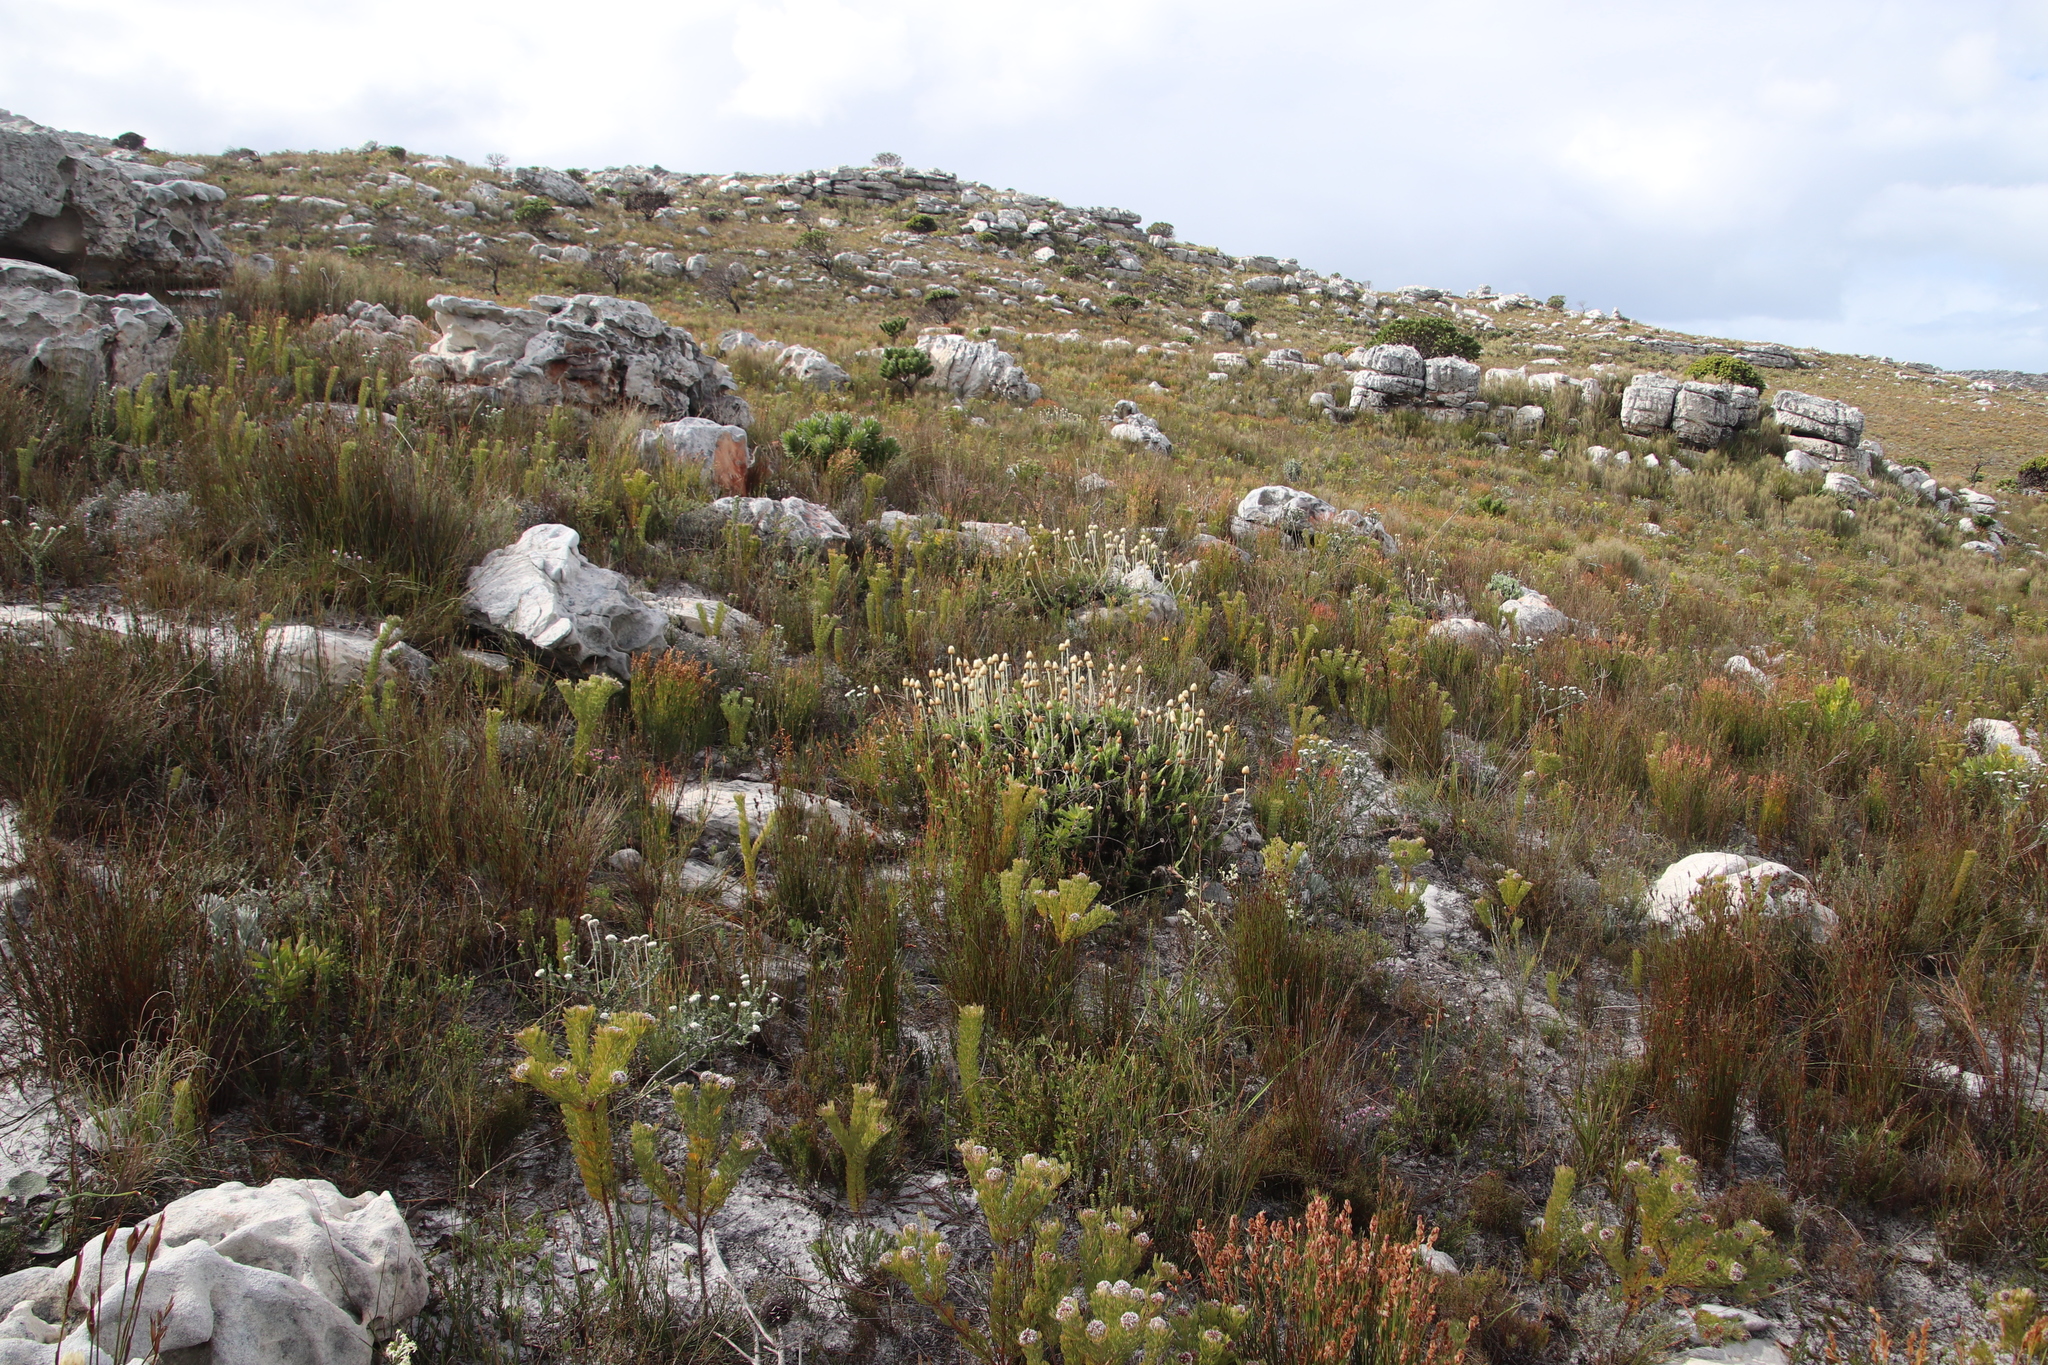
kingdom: Plantae
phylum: Tracheophyta
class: Magnoliopsida
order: Asterales
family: Asteraceae
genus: Syncarpha
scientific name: Syncarpha speciosissima
